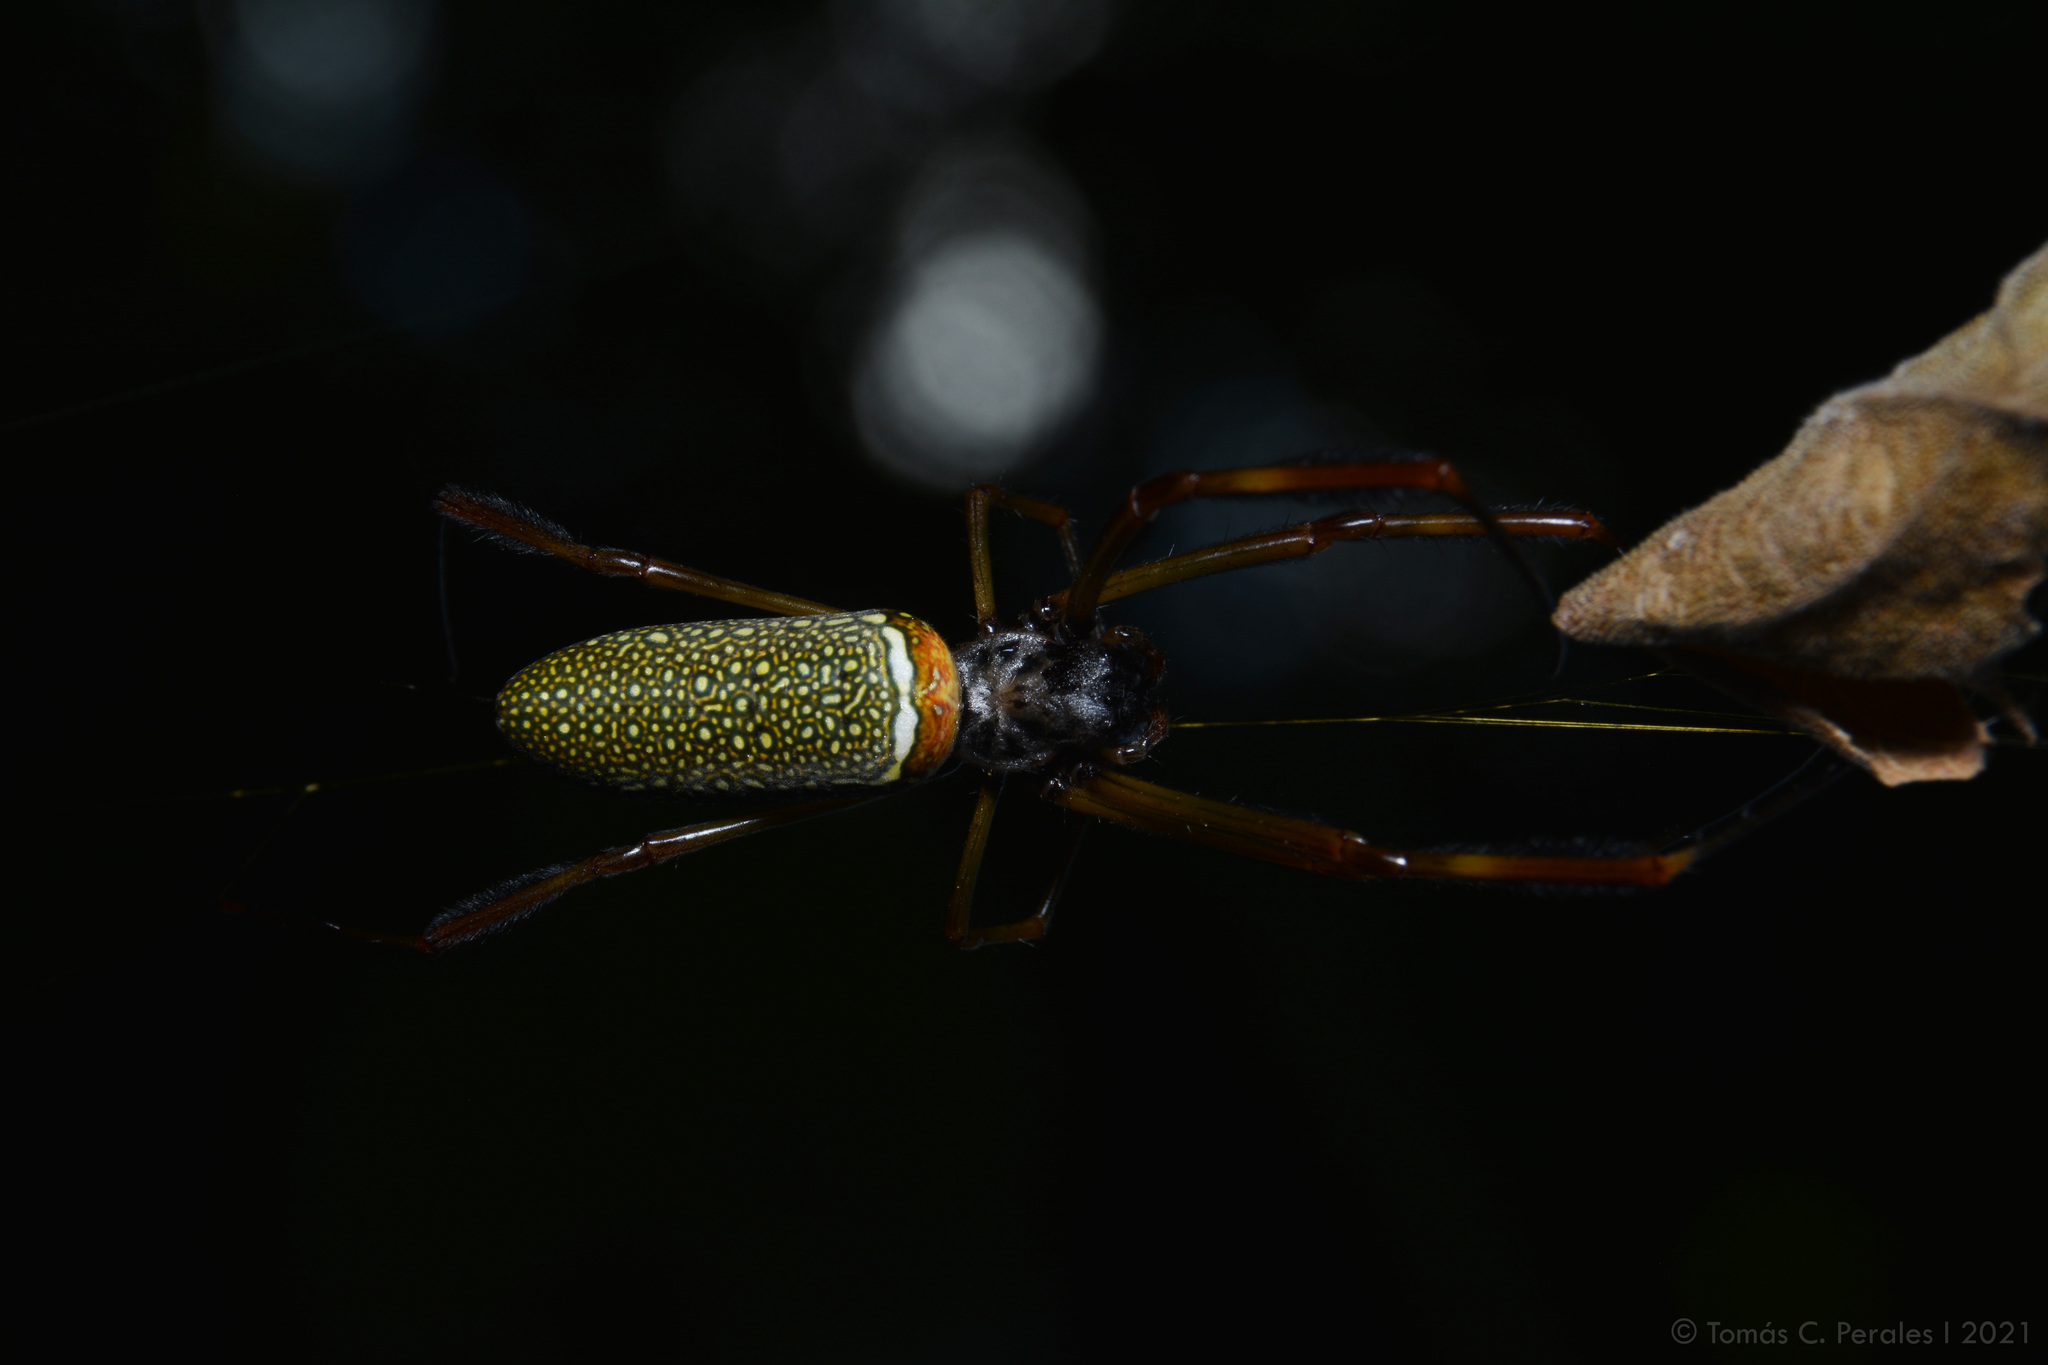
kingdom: Animalia
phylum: Arthropoda
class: Arachnida
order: Araneae
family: Araneidae
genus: Trichonephila
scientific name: Trichonephila clavipes
